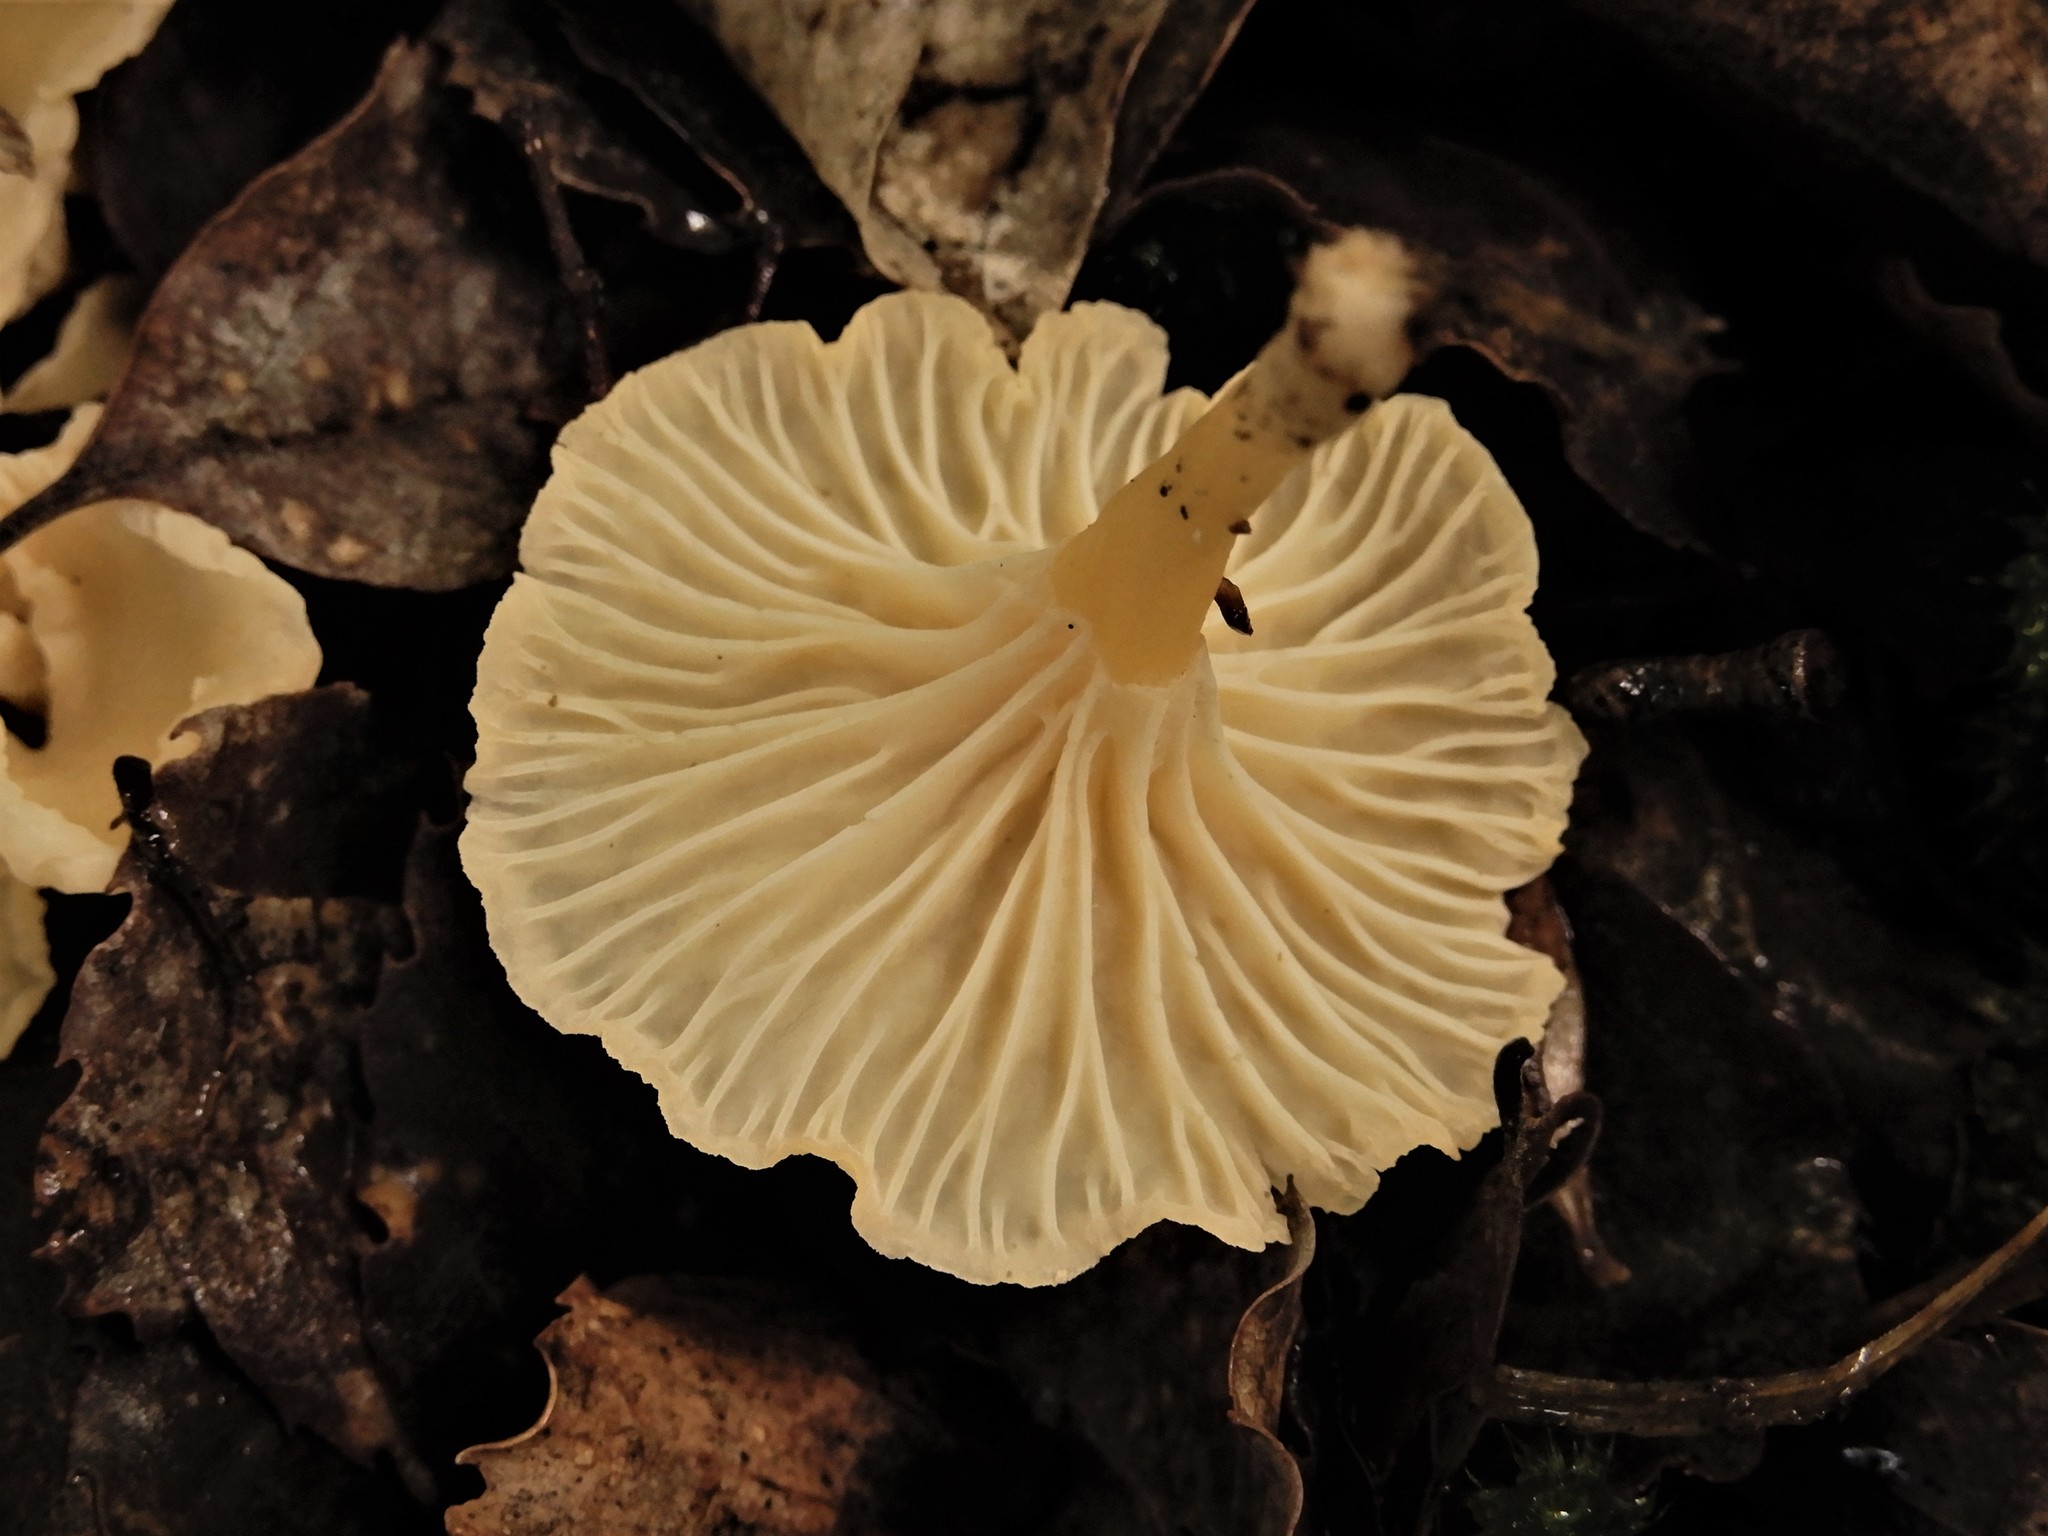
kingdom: Fungi
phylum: Basidiomycota
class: Agaricomycetes
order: Cantharellales
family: Hydnaceae
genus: Cantharellus
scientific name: Cantharellus wellingtonensis
